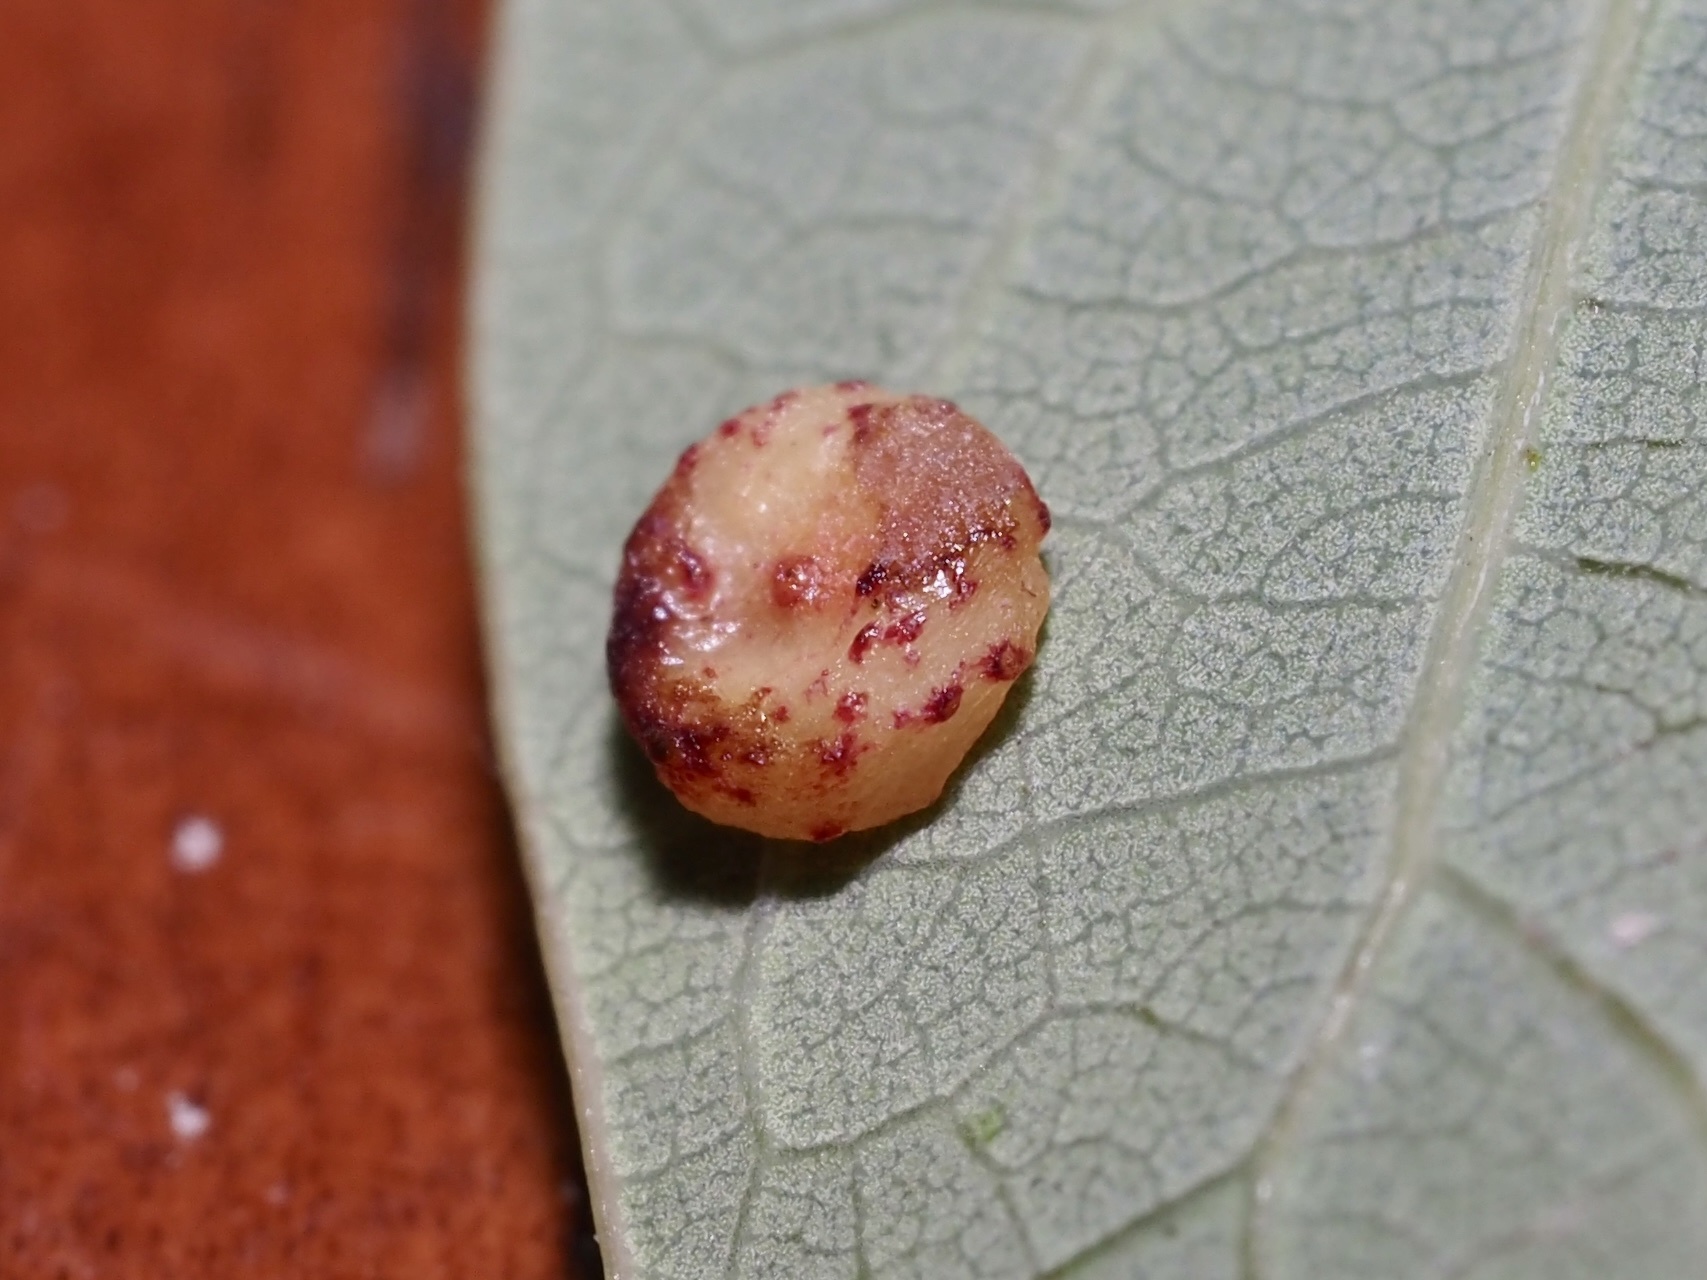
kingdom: Animalia
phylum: Arthropoda
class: Insecta
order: Hymenoptera
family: Cynipidae
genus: Andricus
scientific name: Andricus
